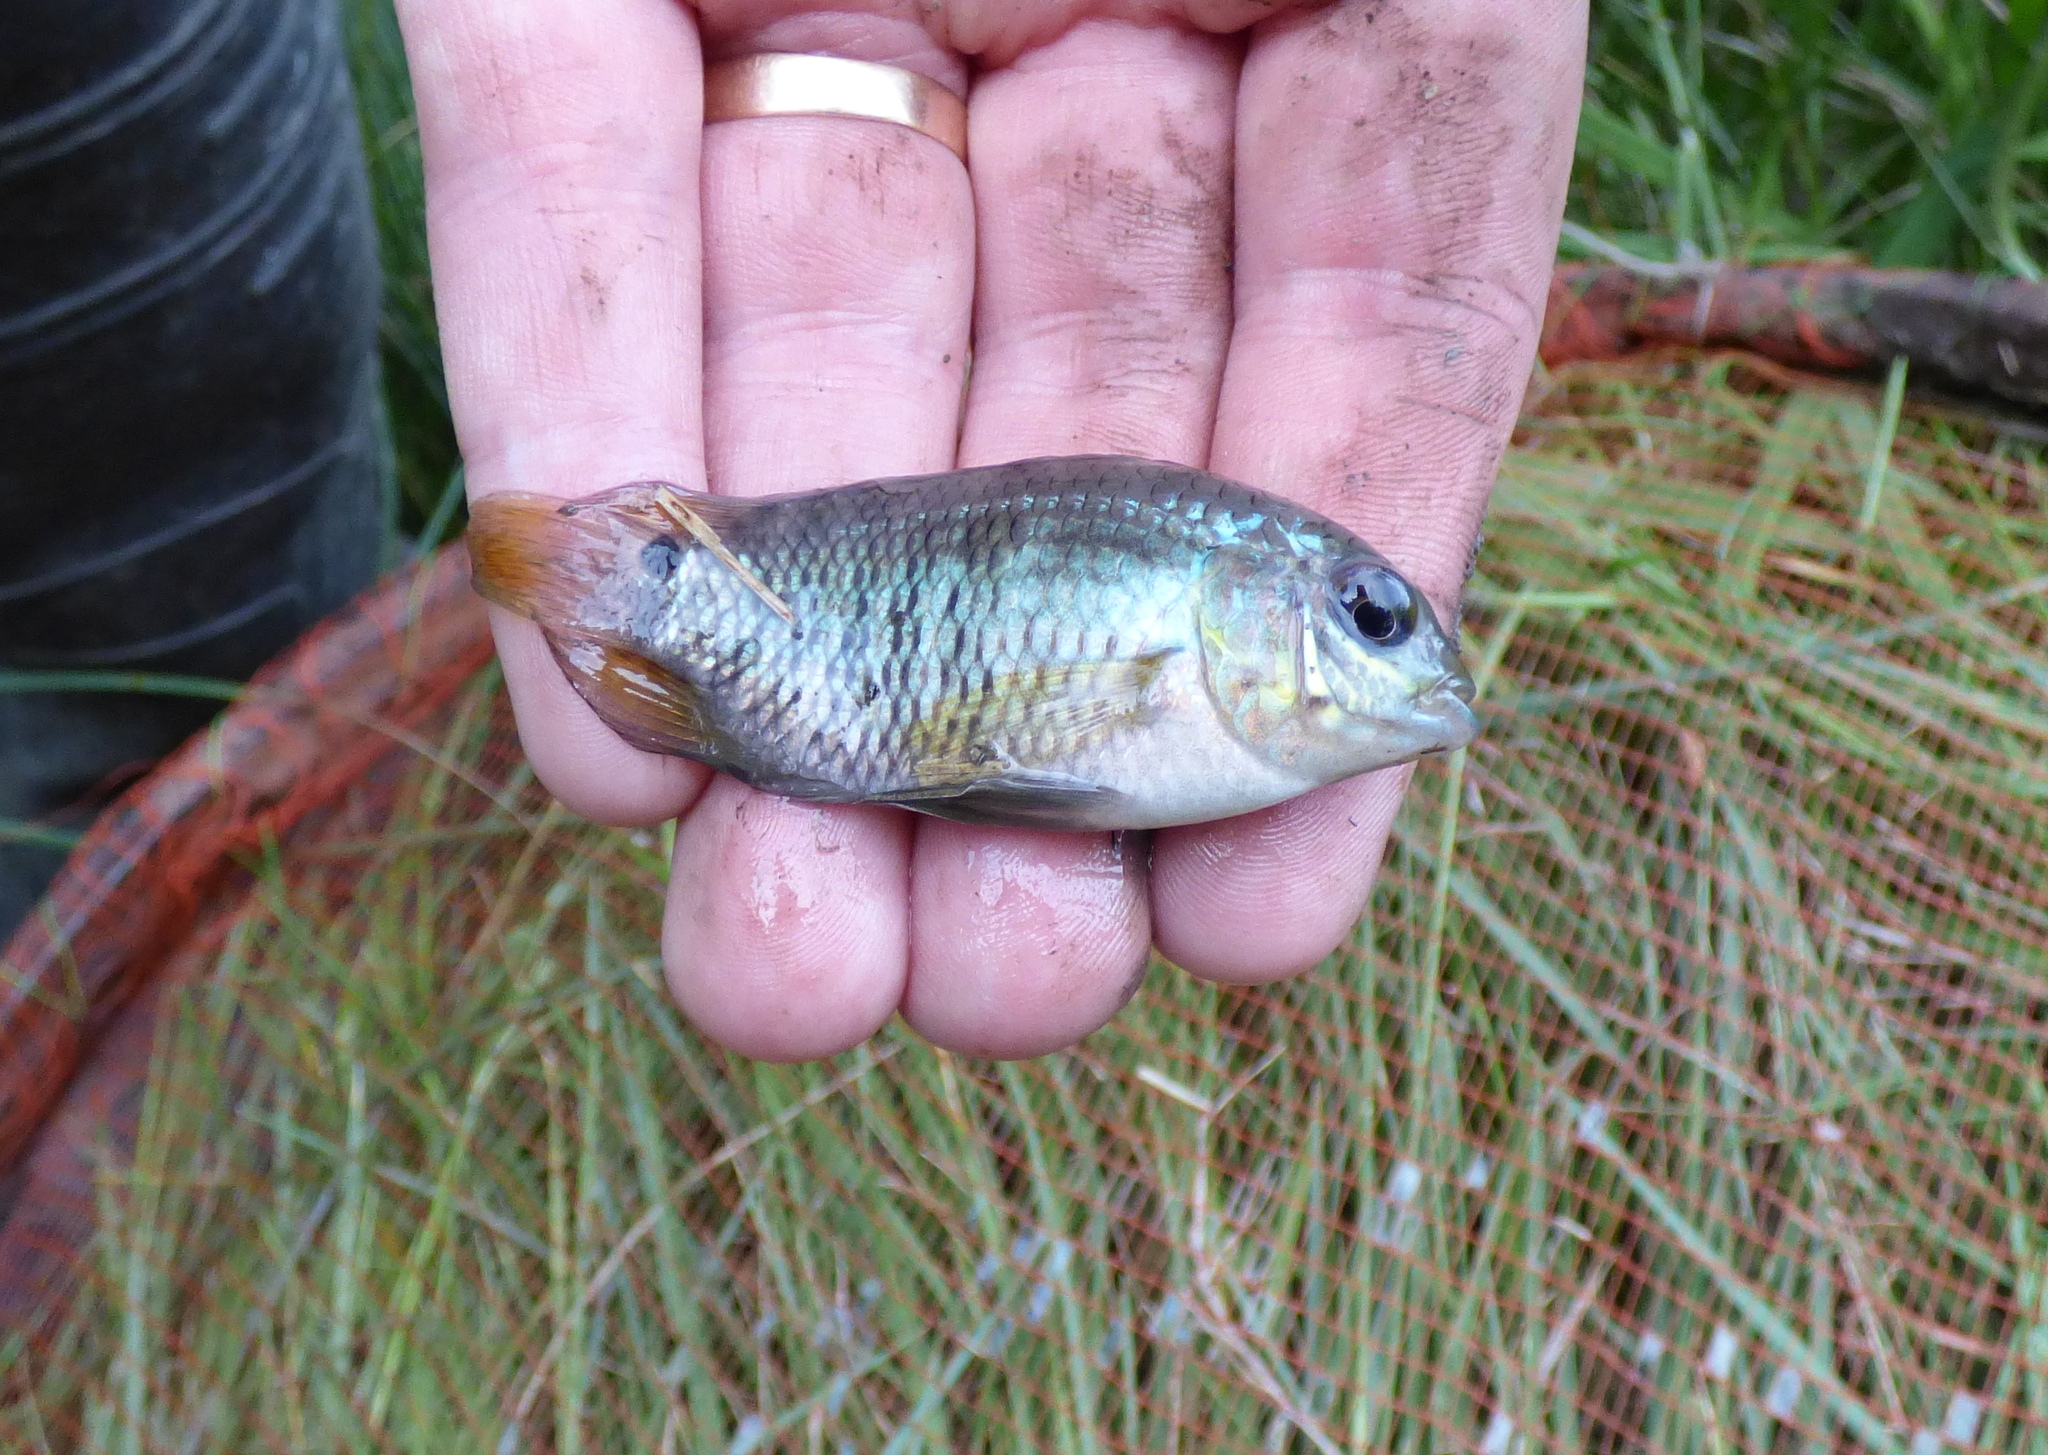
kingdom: Animalia
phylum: Chordata
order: Perciformes
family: Cichlidae
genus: Cichlasoma
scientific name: Cichlasoma dimerus
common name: Chanchita
